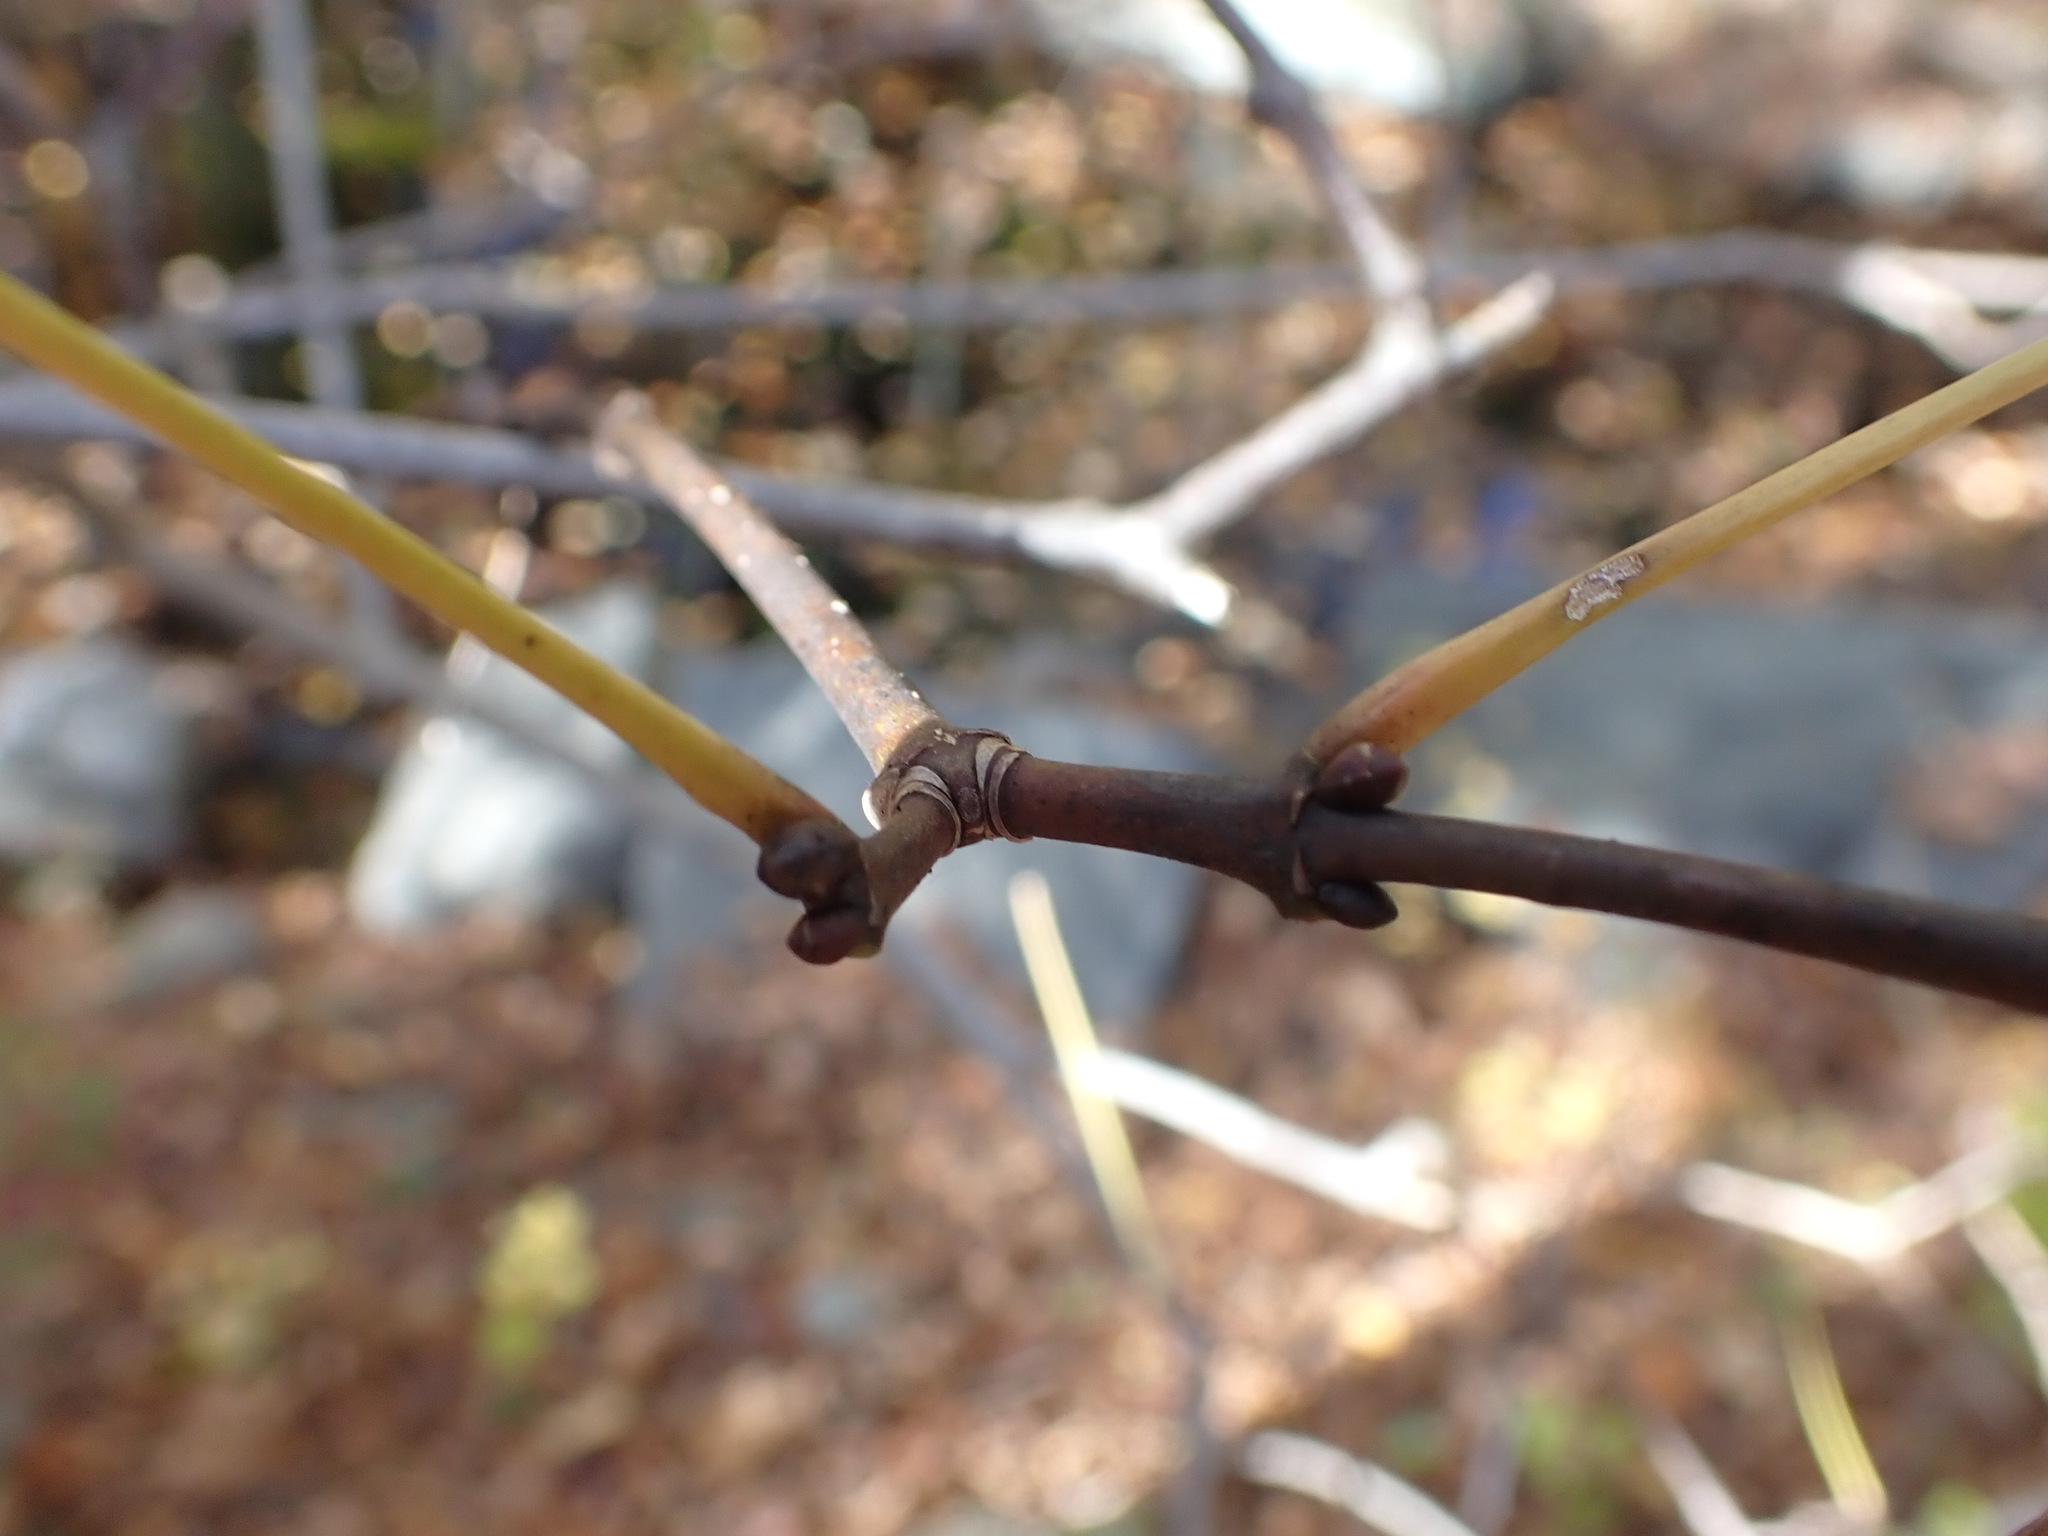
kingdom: Plantae
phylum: Tracheophyta
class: Magnoliopsida
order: Crossosomatales
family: Staphyleaceae
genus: Staphylea
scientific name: Staphylea trifolia
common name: American bladdernut
